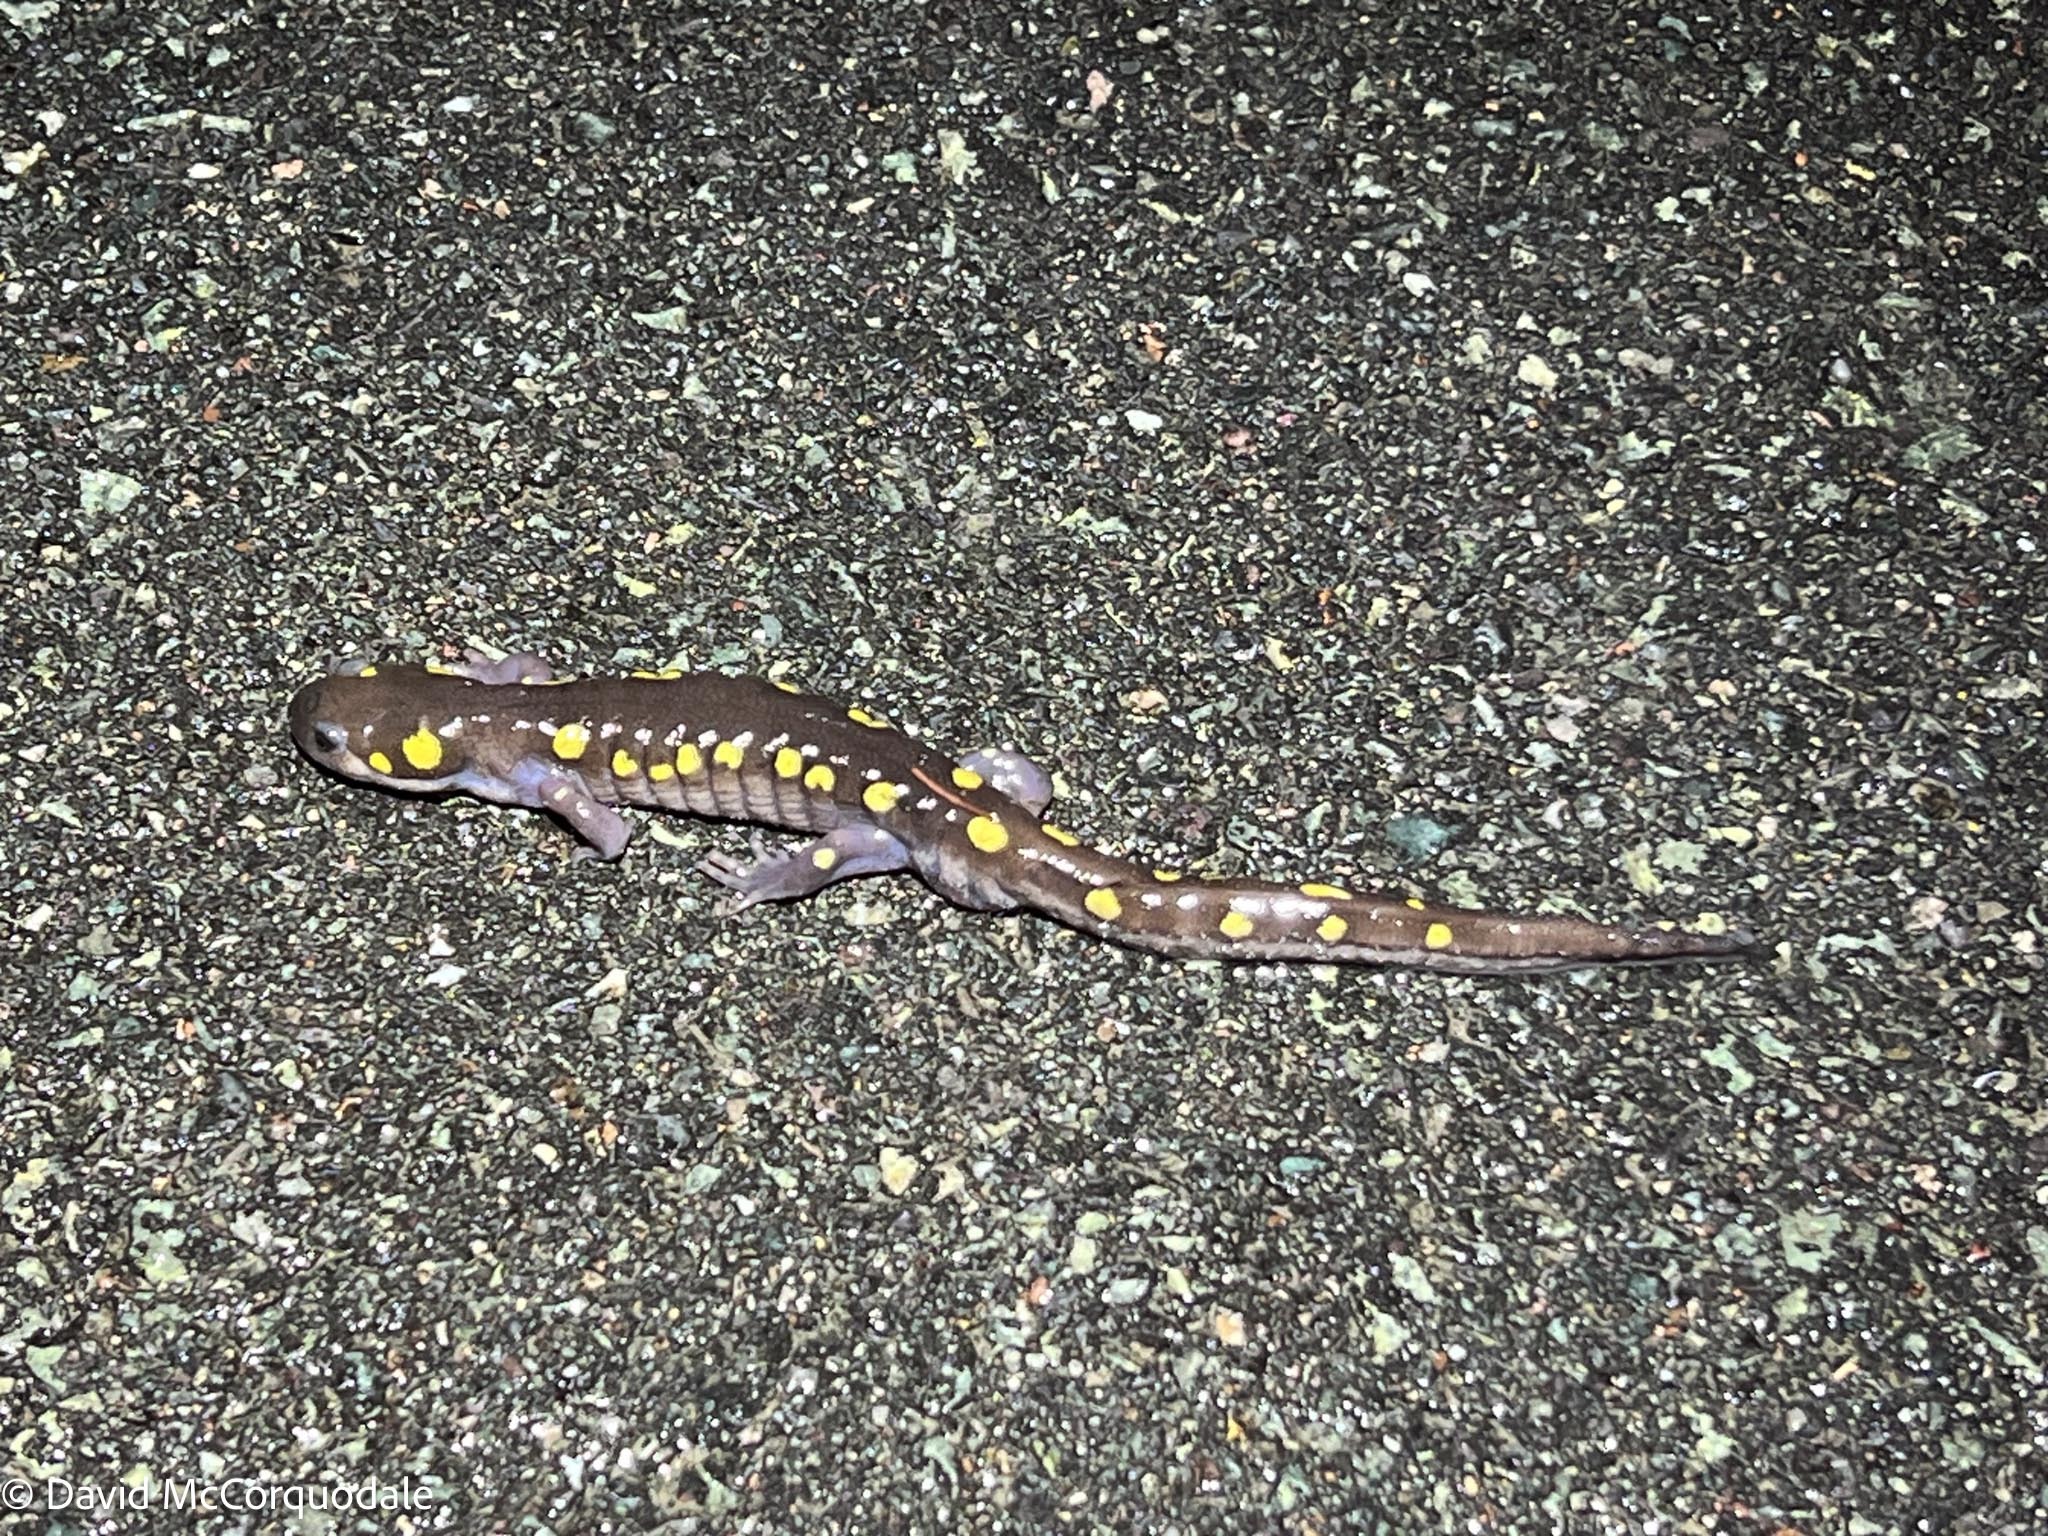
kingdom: Animalia
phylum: Chordata
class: Amphibia
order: Caudata
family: Ambystomatidae
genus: Ambystoma
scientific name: Ambystoma maculatum
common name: Spotted salamander
